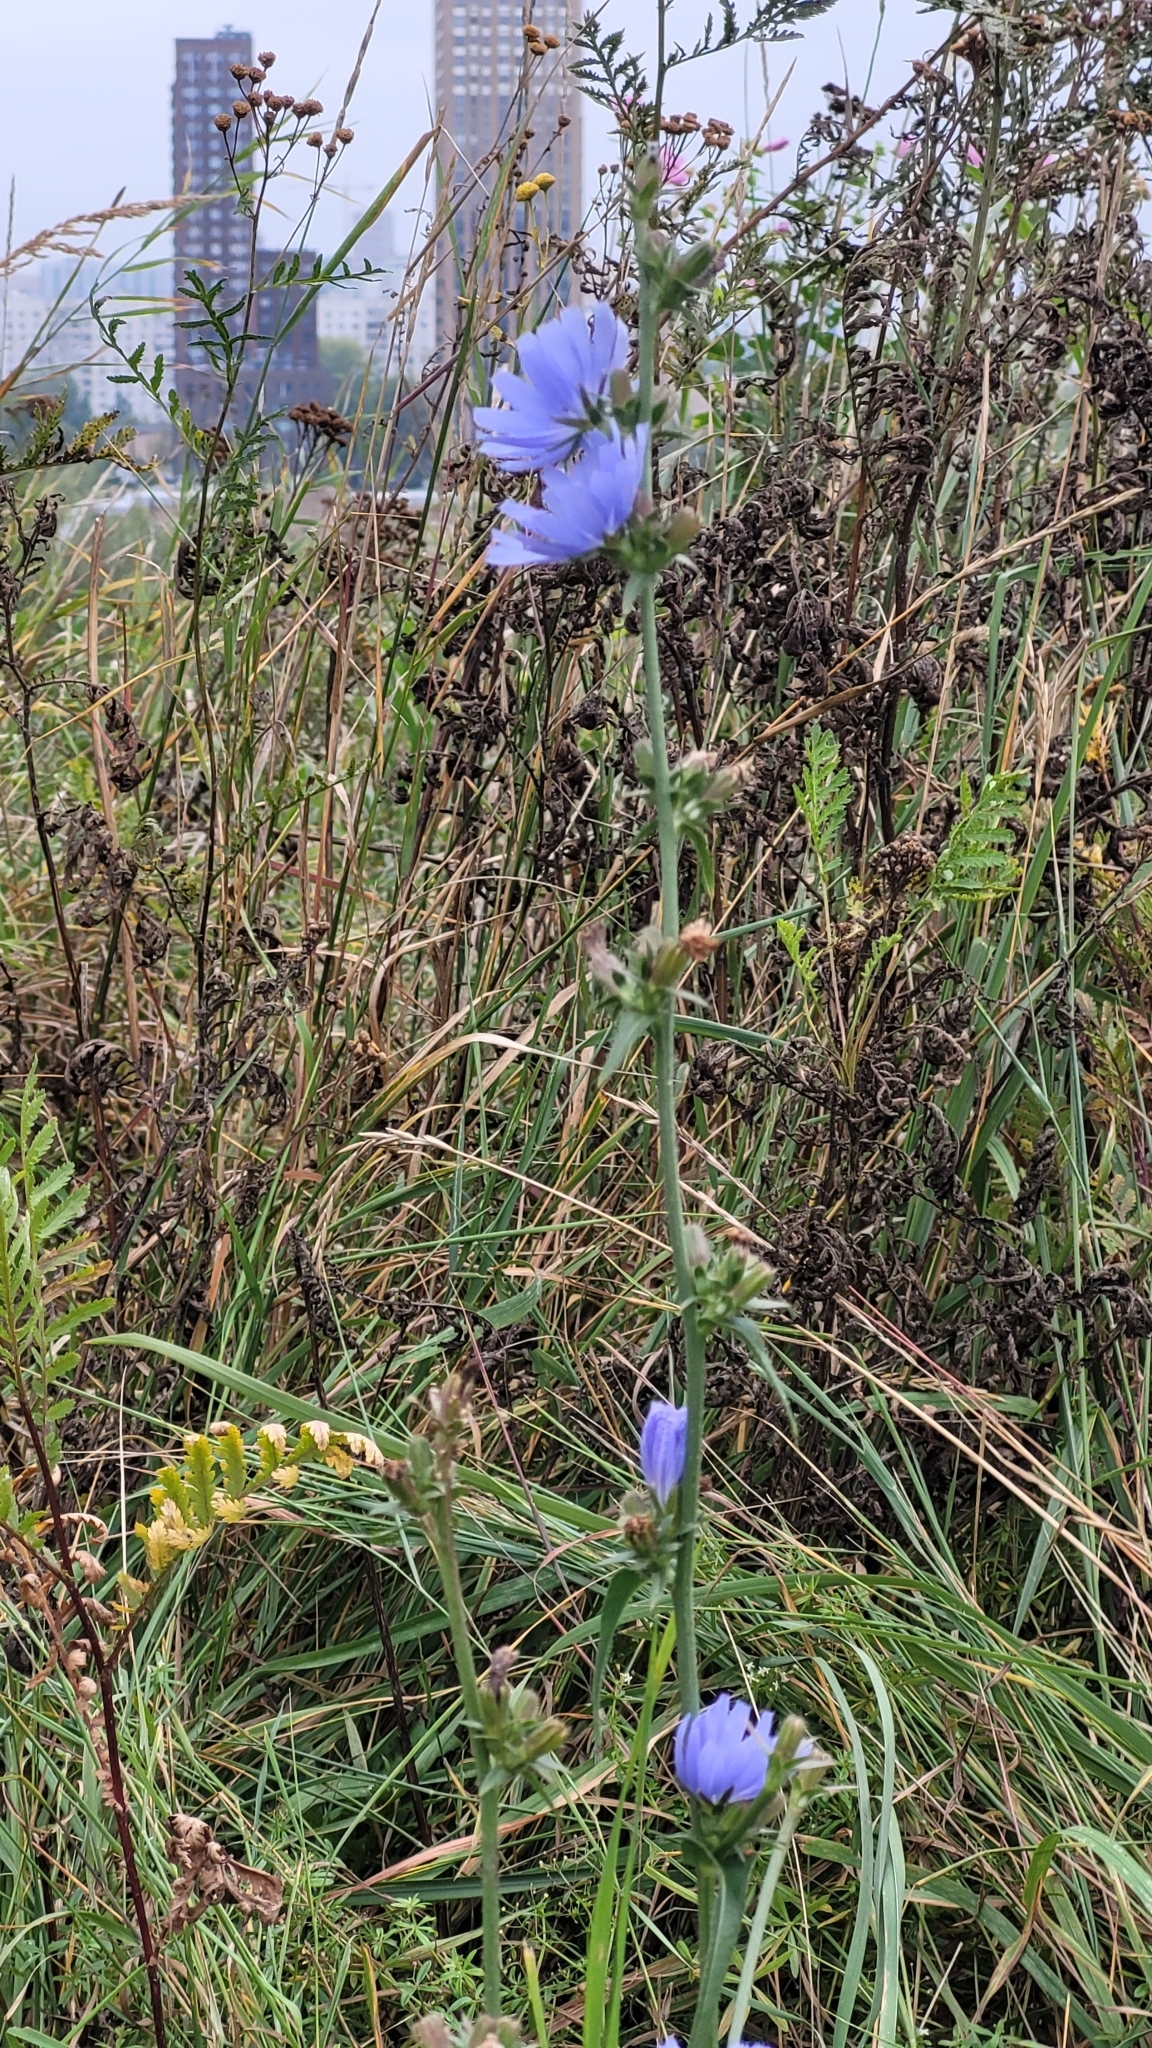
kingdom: Plantae
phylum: Tracheophyta
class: Magnoliopsida
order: Asterales
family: Asteraceae
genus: Cichorium
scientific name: Cichorium intybus
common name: Chicory
